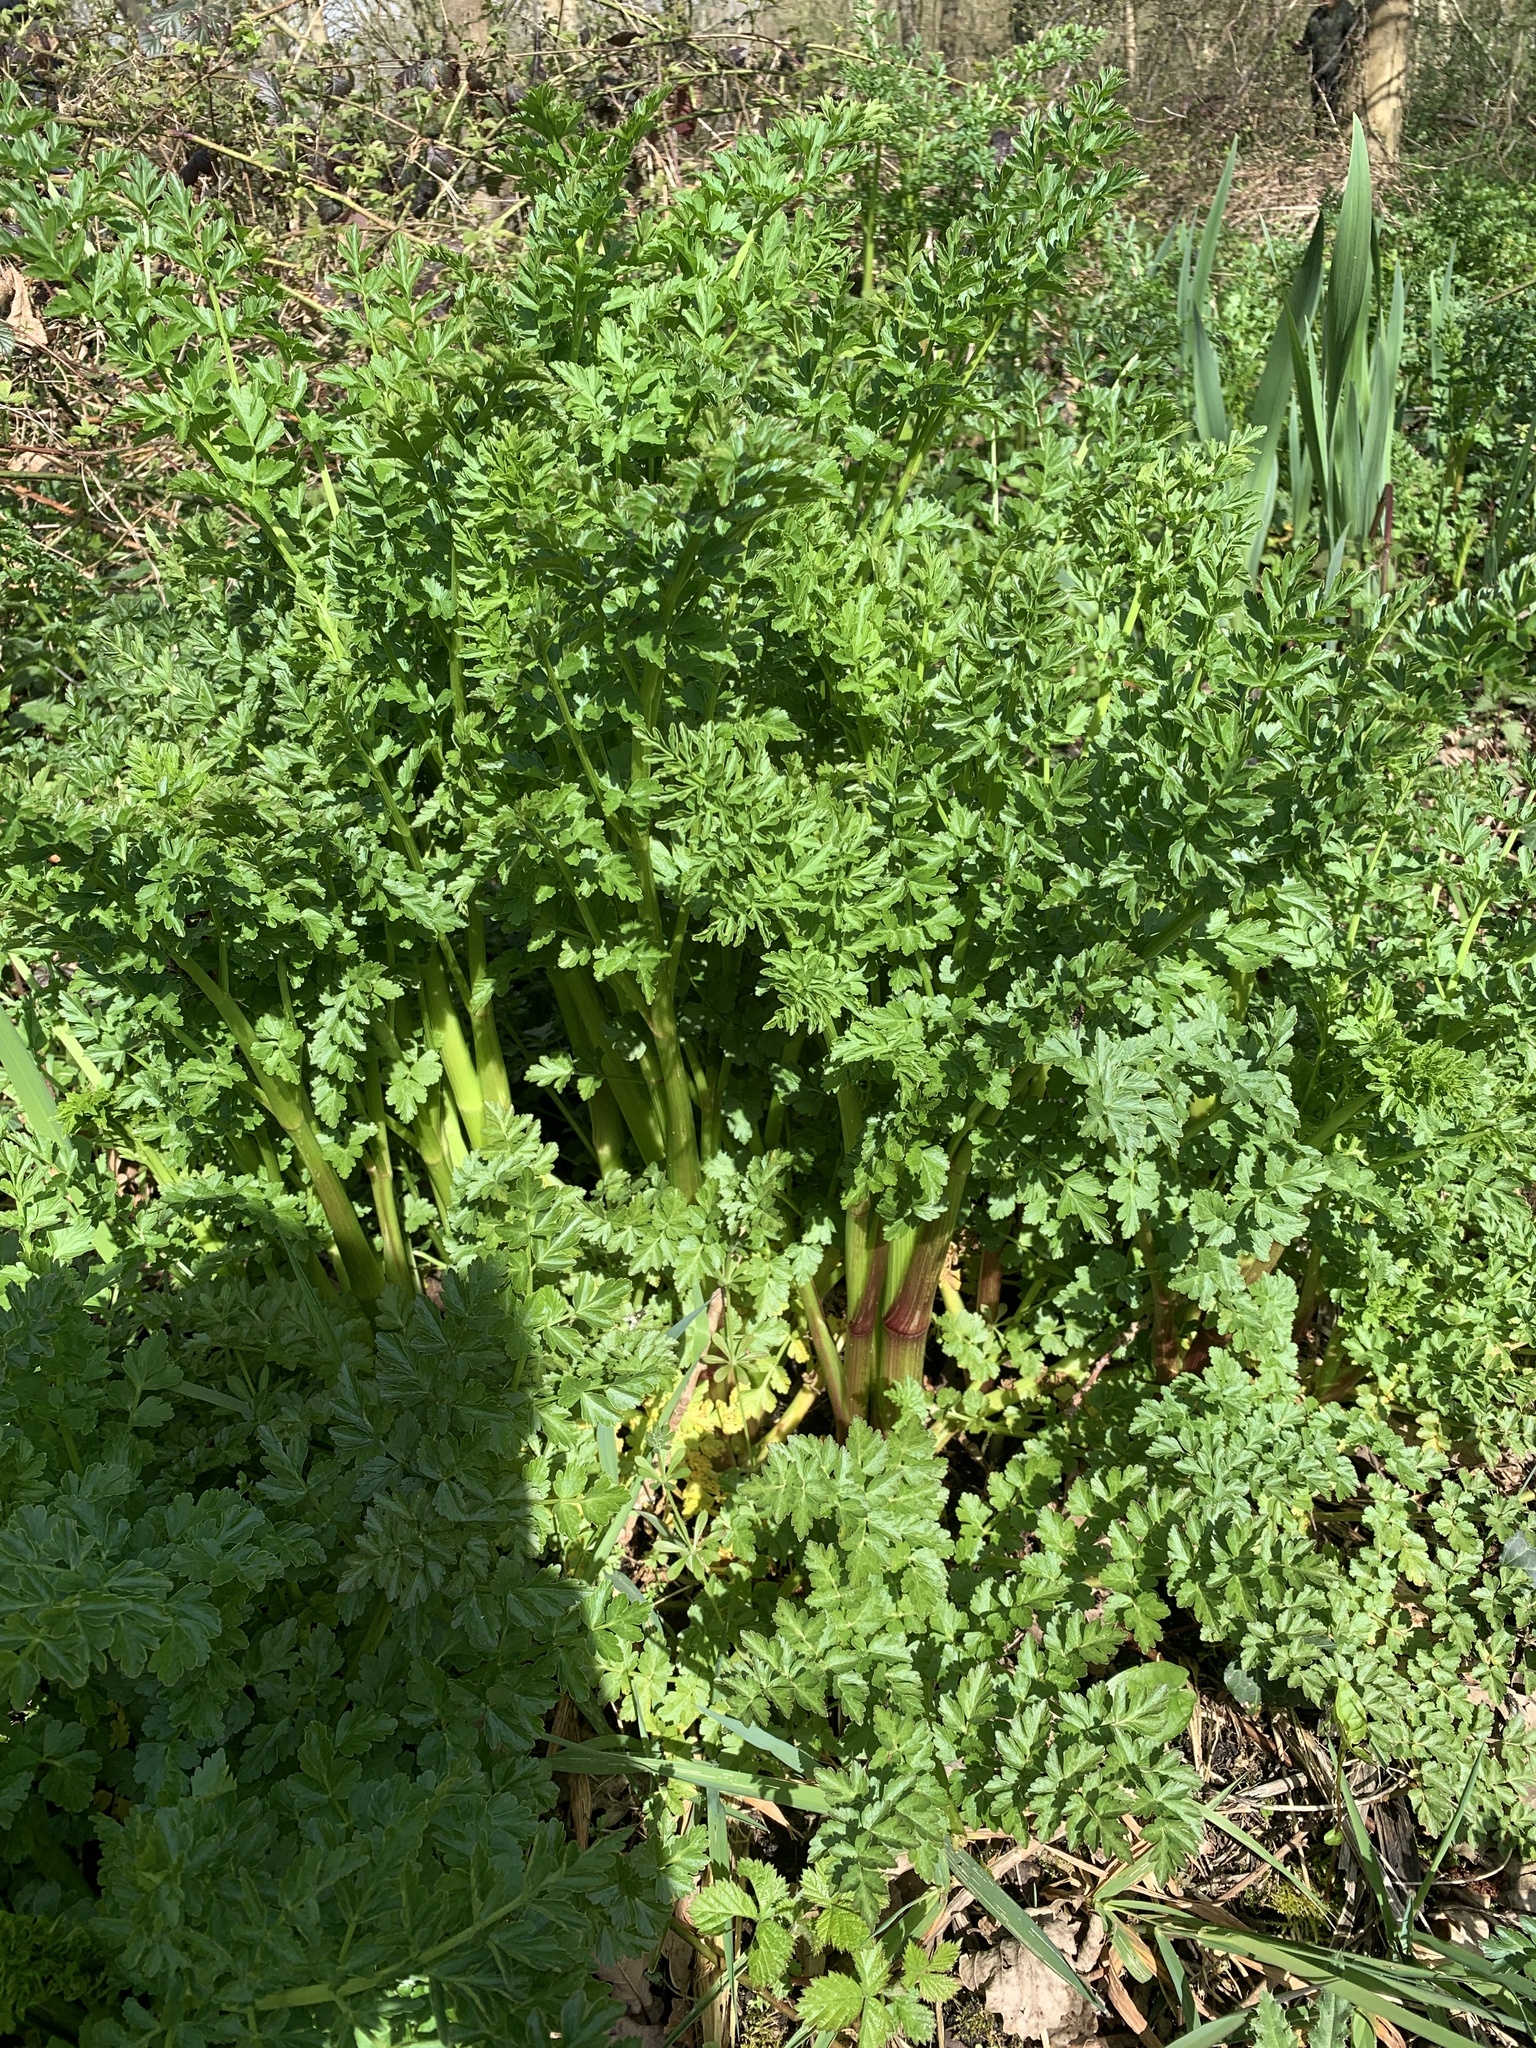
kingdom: Plantae
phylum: Tracheophyta
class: Magnoliopsida
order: Apiales
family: Apiaceae
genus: Oenanthe
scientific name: Oenanthe crocata
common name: Hemlock water-dropwort
